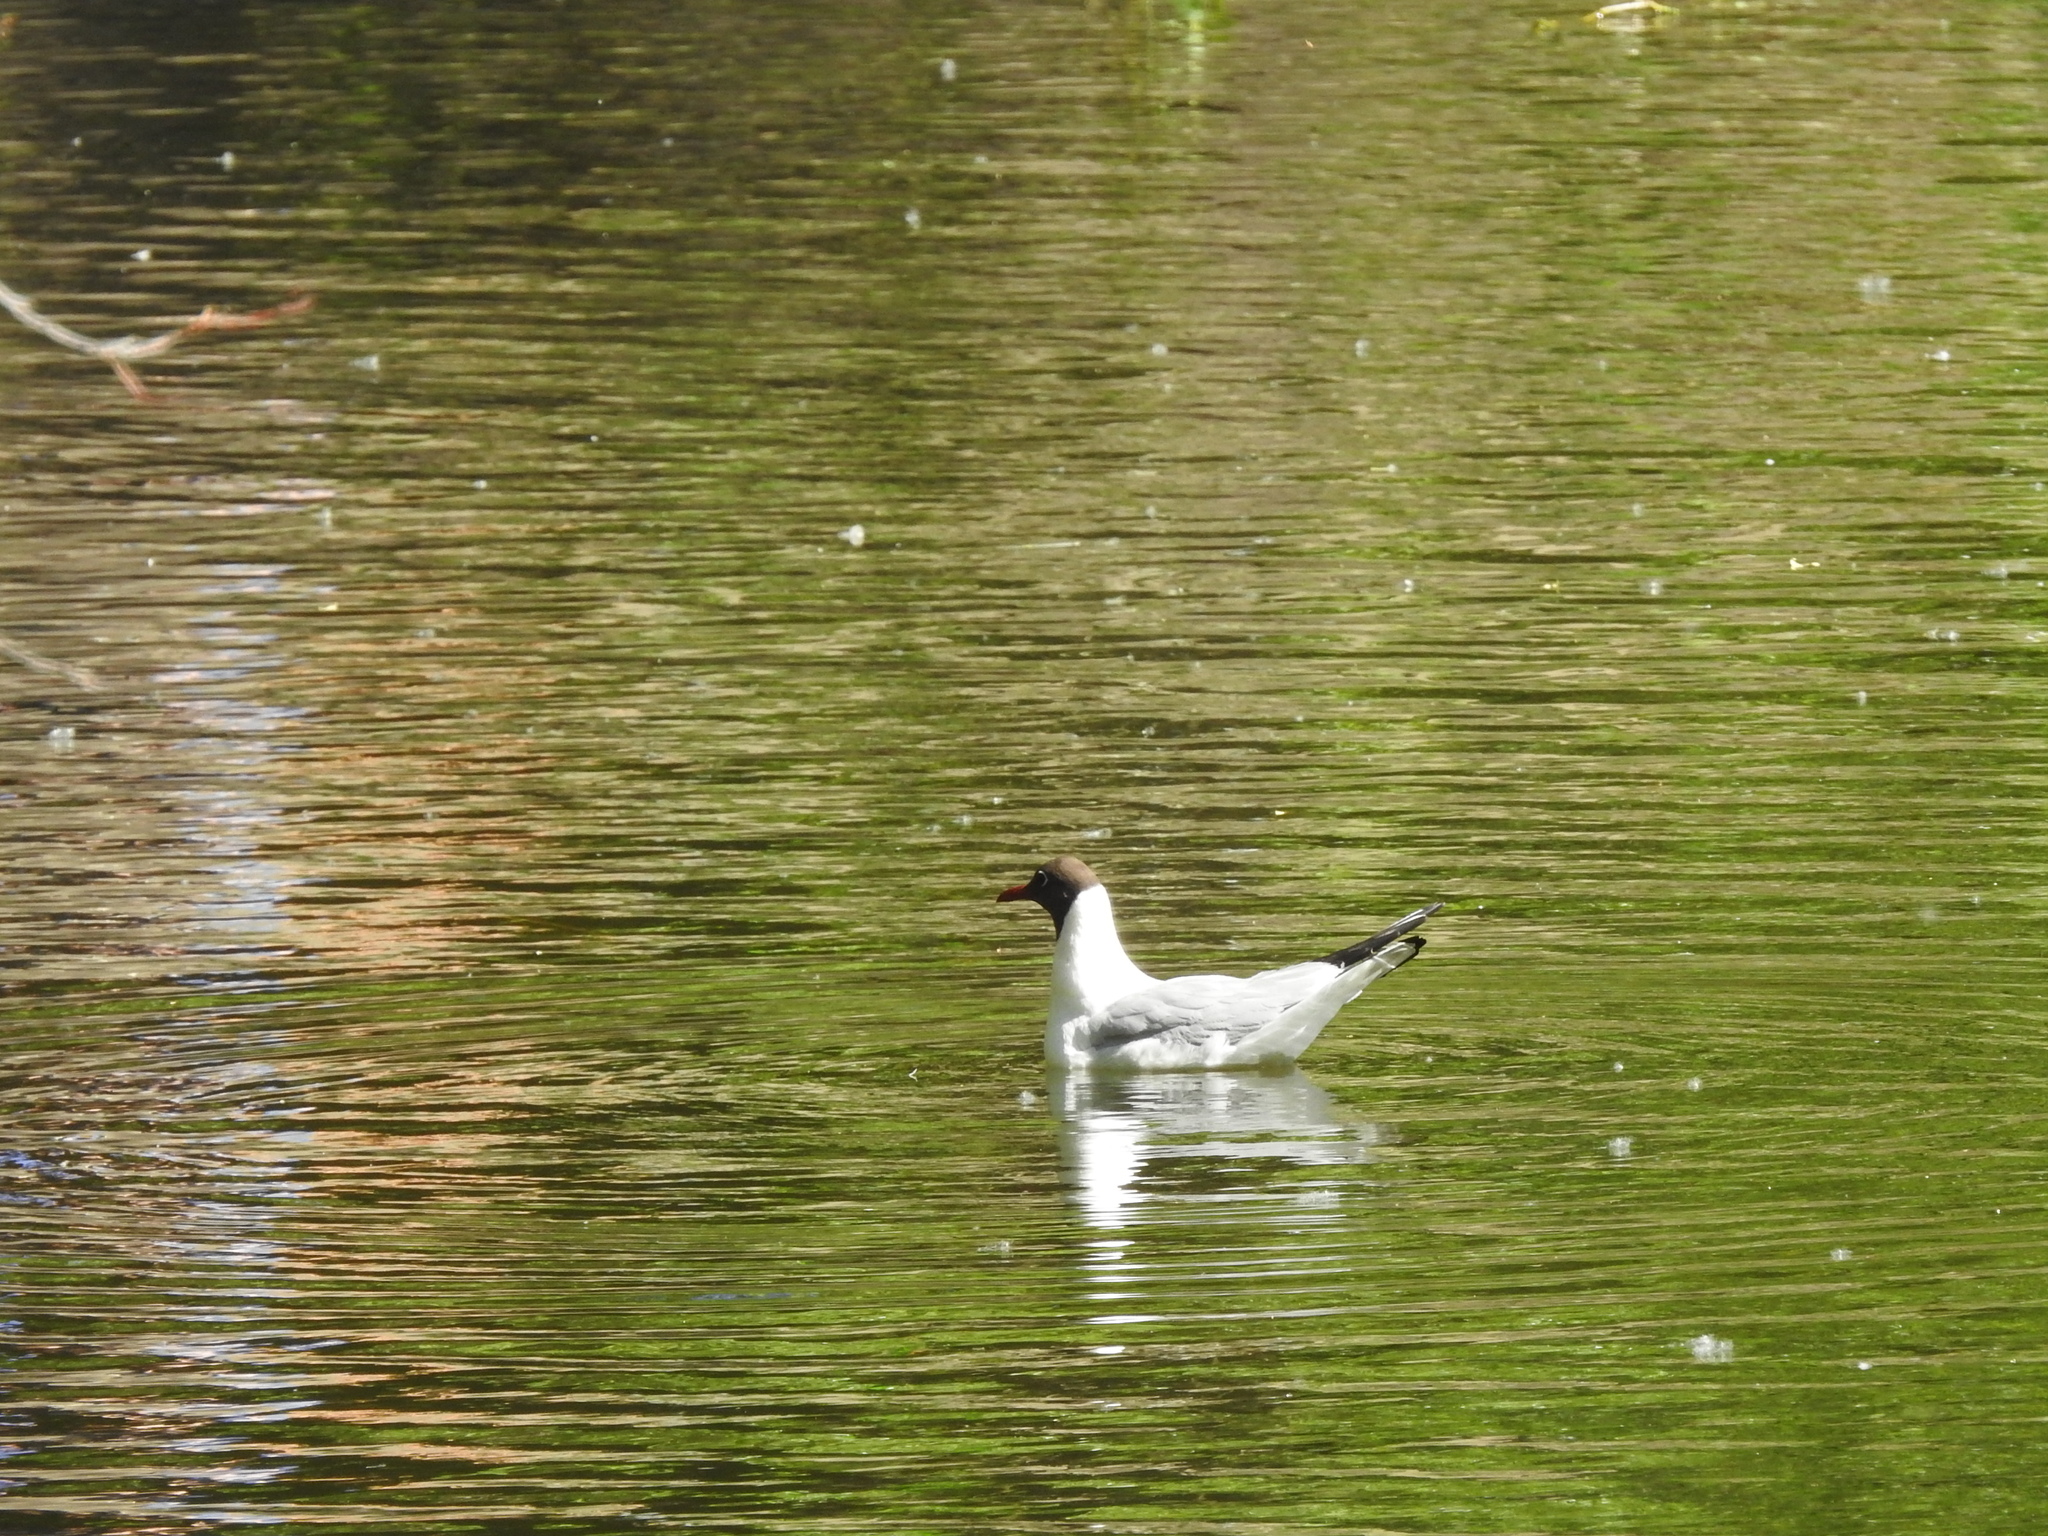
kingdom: Animalia
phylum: Chordata
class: Aves
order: Charadriiformes
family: Laridae
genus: Chroicocephalus
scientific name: Chroicocephalus ridibundus
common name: Black-headed gull
